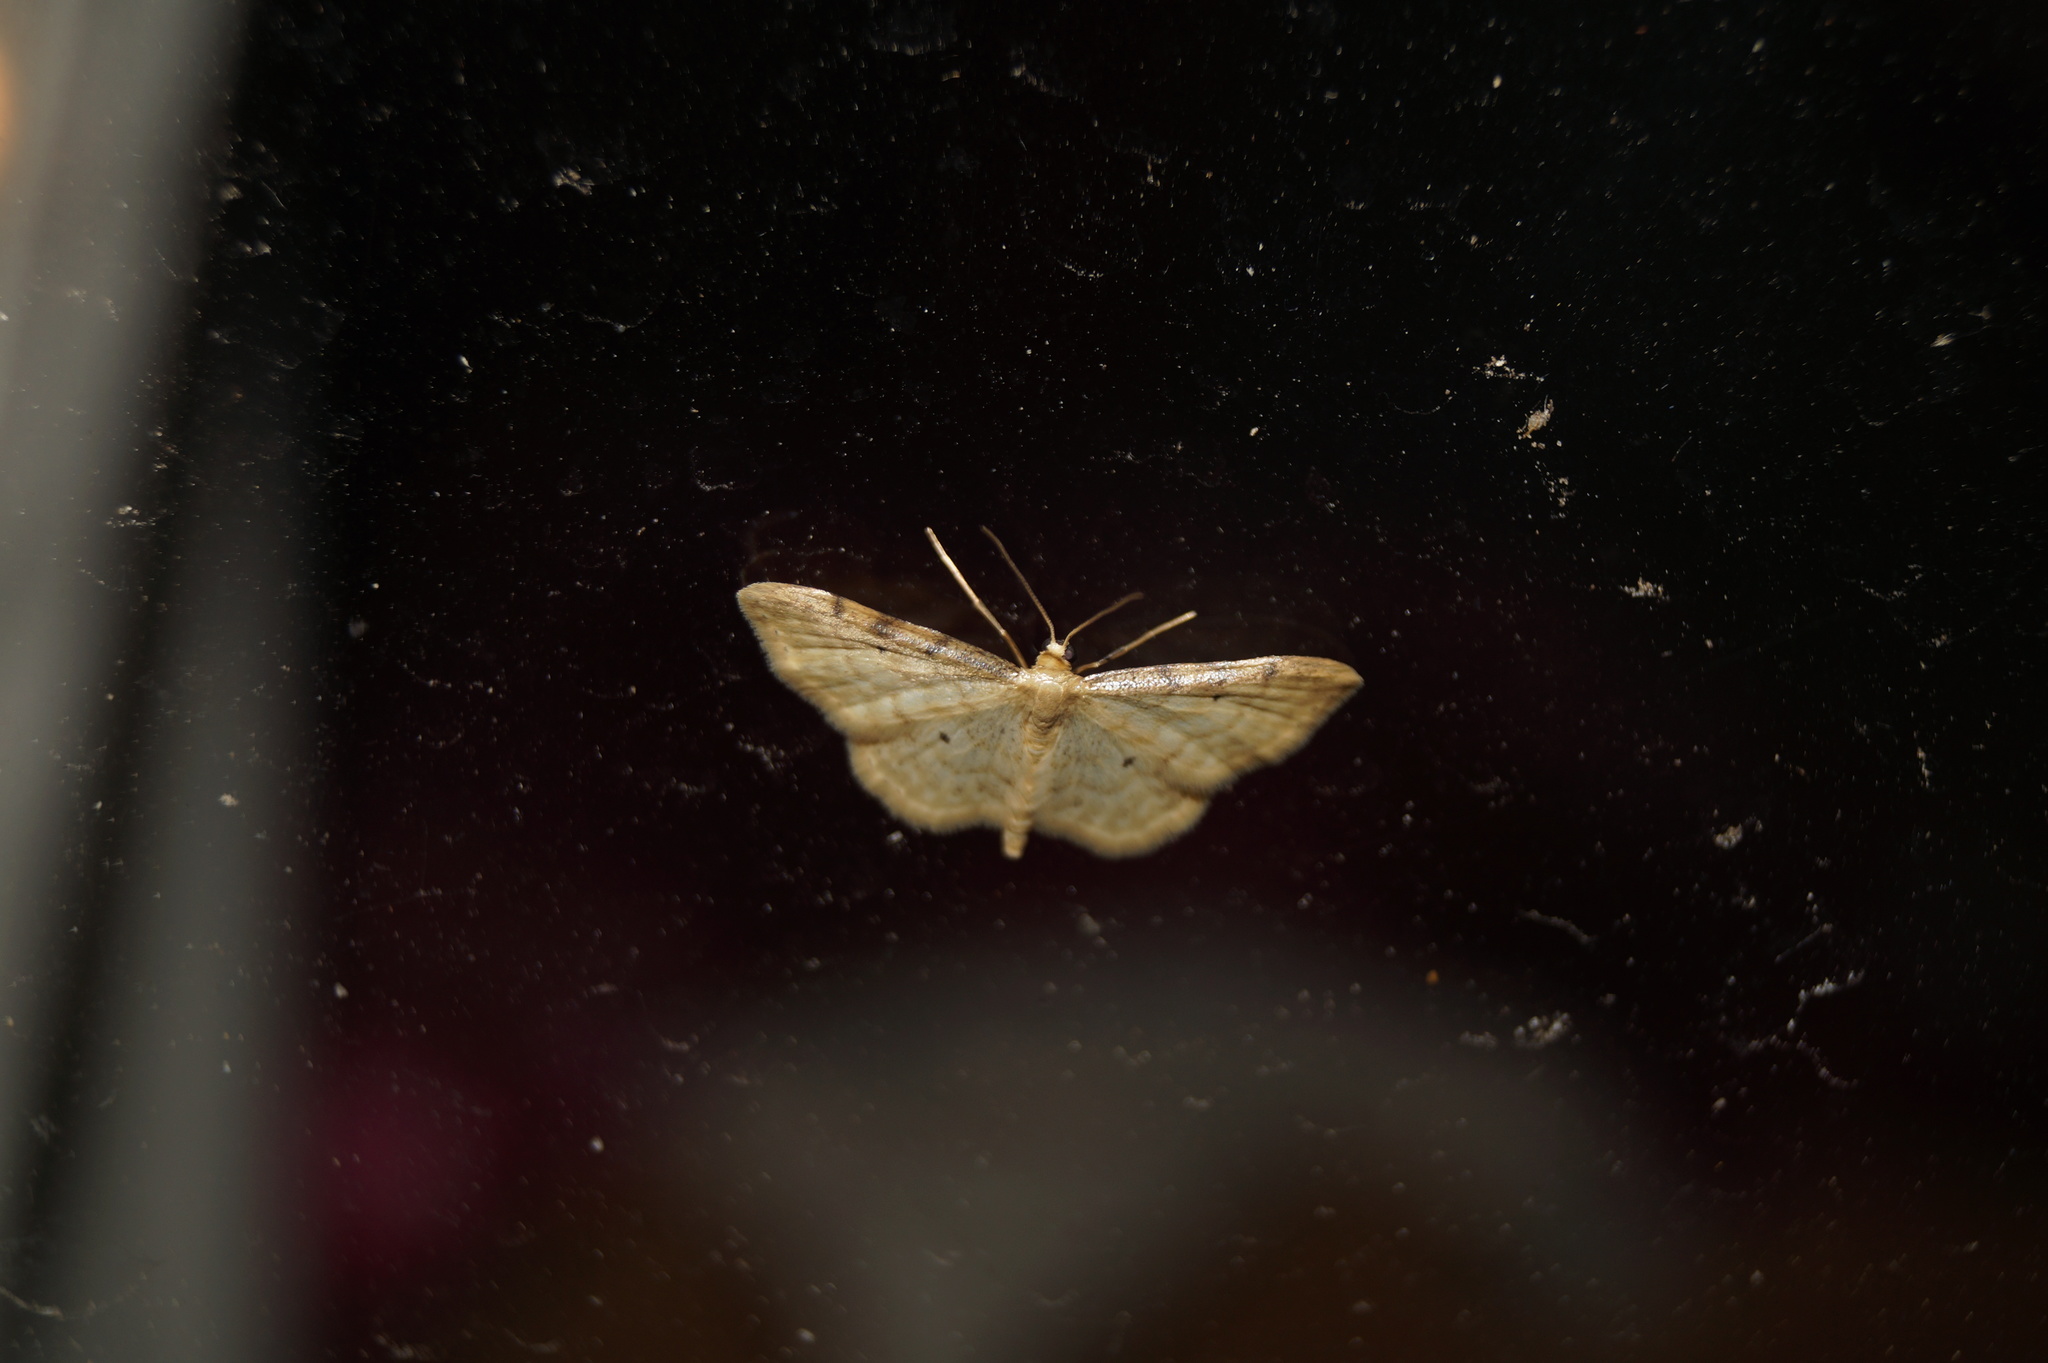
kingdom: Animalia
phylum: Arthropoda
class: Insecta
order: Lepidoptera
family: Geometridae
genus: Idaea
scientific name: Idaea fuscovenosa
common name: Dwarf cream wave
